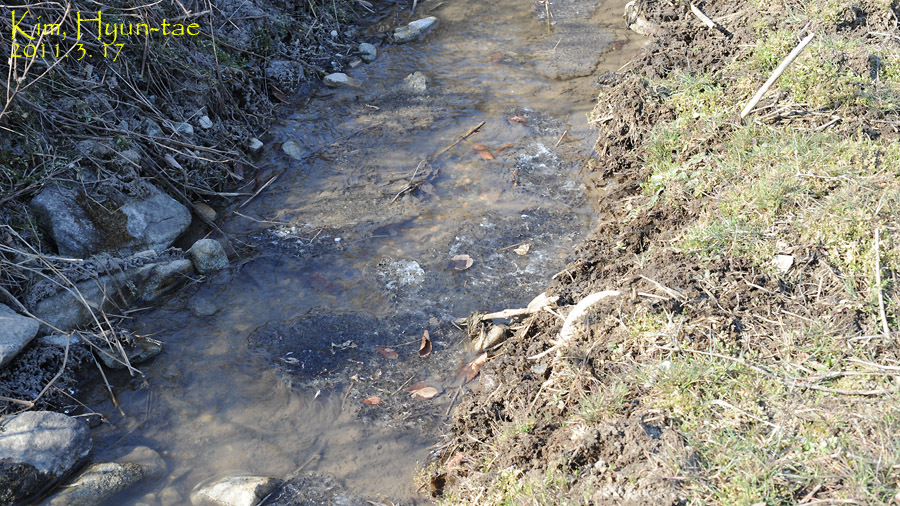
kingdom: Animalia
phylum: Chordata
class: Amphibia
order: Anura
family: Ranidae
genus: Rana
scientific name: Rana uenoi
